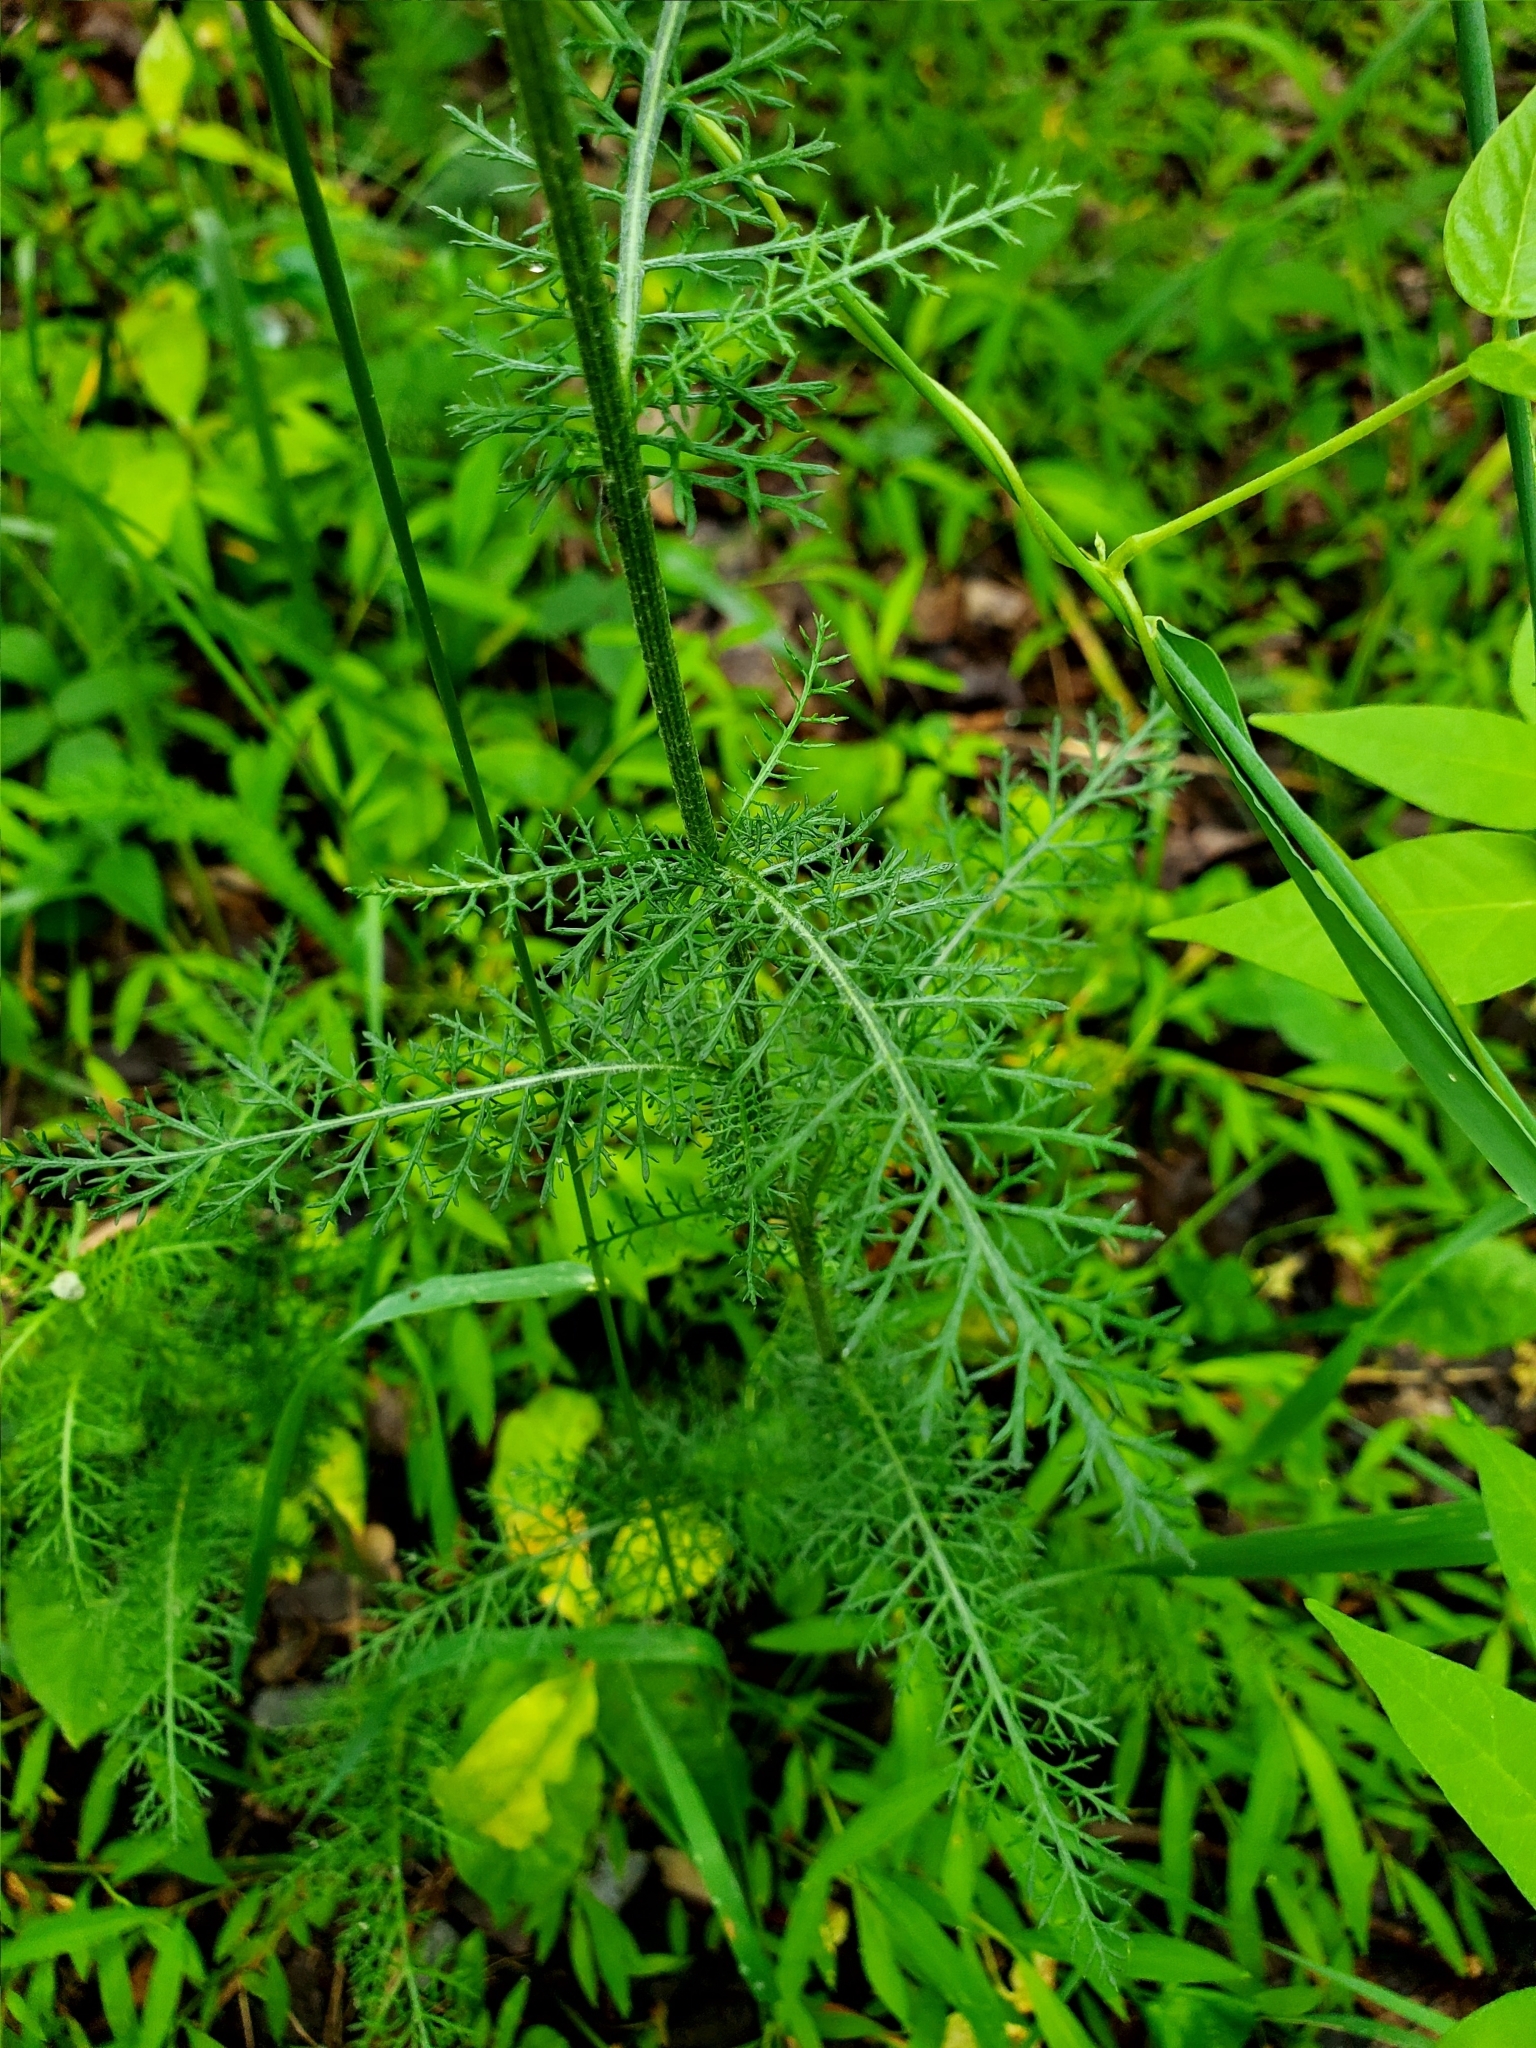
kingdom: Plantae
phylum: Tracheophyta
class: Magnoliopsida
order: Asterales
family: Asteraceae
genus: Achillea
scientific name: Achillea millefolium
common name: Yarrow
